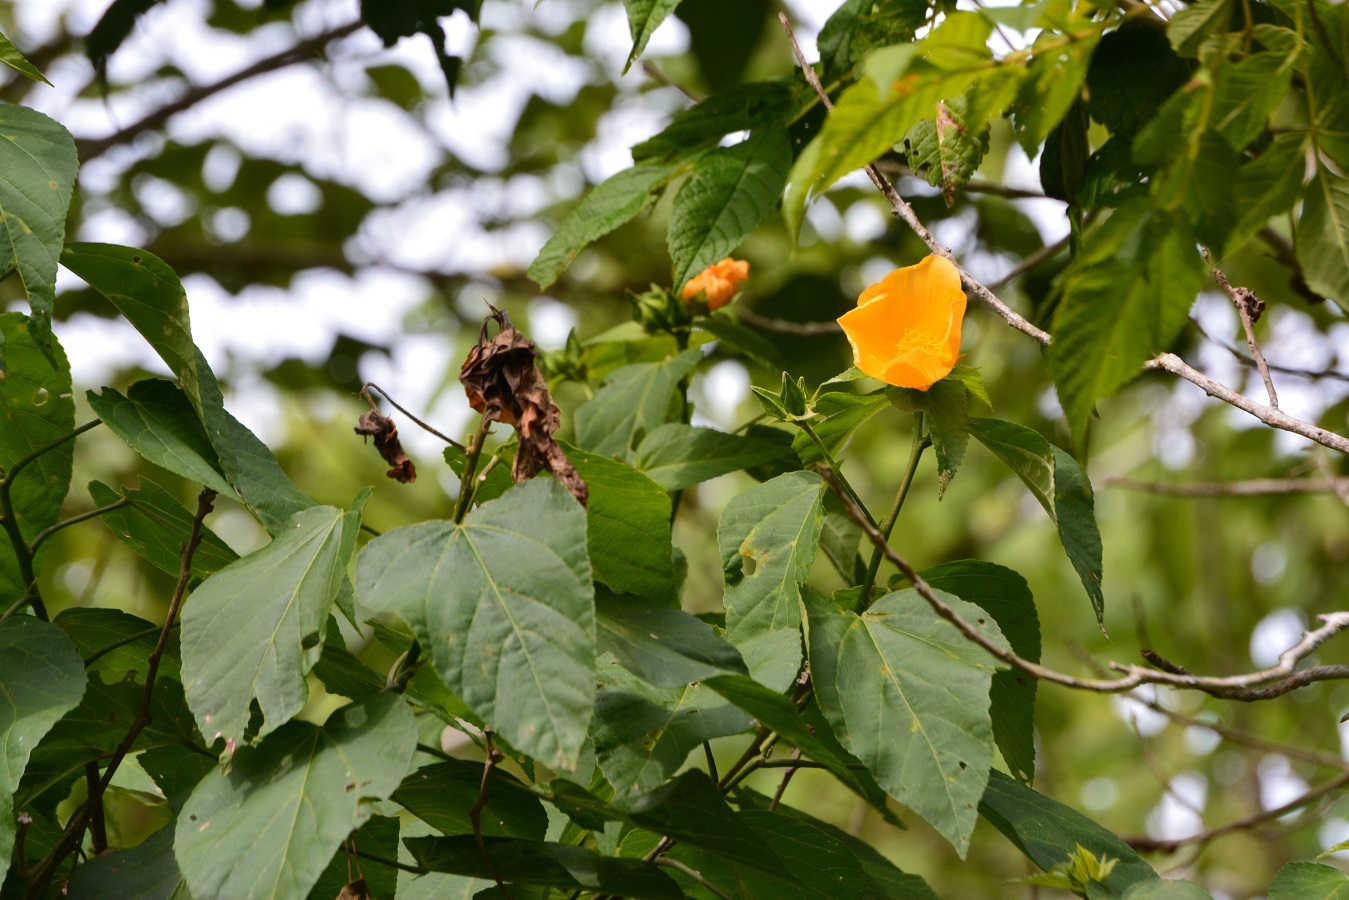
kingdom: Plantae
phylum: Tracheophyta
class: Magnoliopsida
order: Malvales
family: Malvaceae
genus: Dendrosida
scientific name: Dendrosida sharpiana
